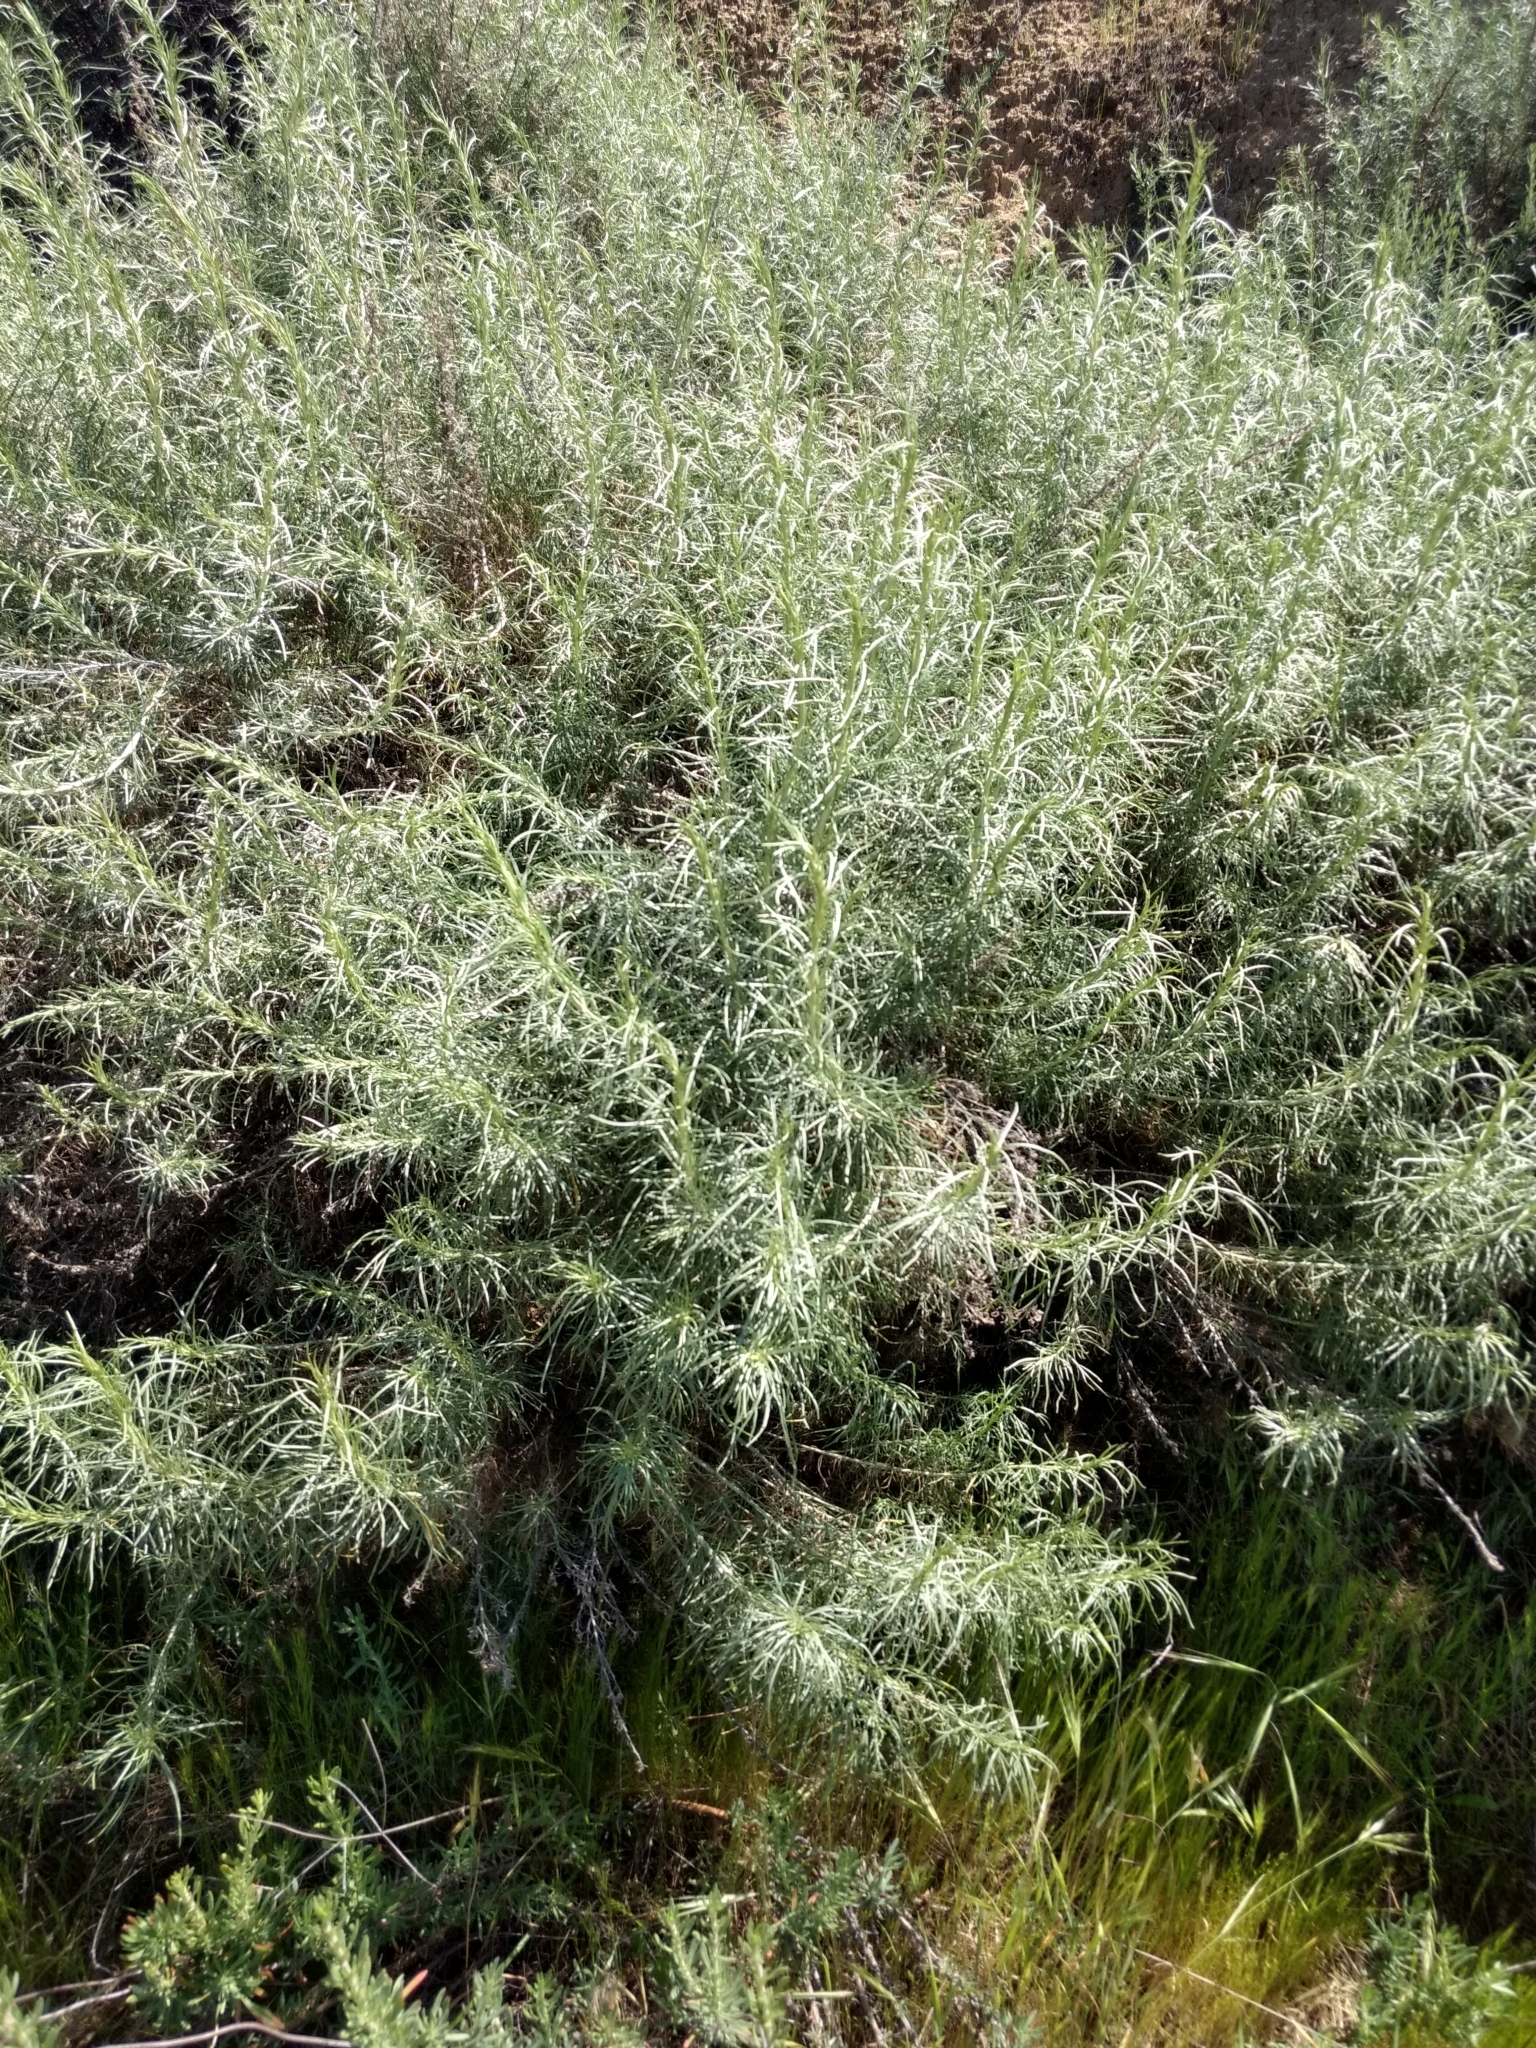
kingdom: Plantae
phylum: Tracheophyta
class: Magnoliopsida
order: Asterales
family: Asteraceae
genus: Artemisia
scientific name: Artemisia californica
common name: California sagebrush
